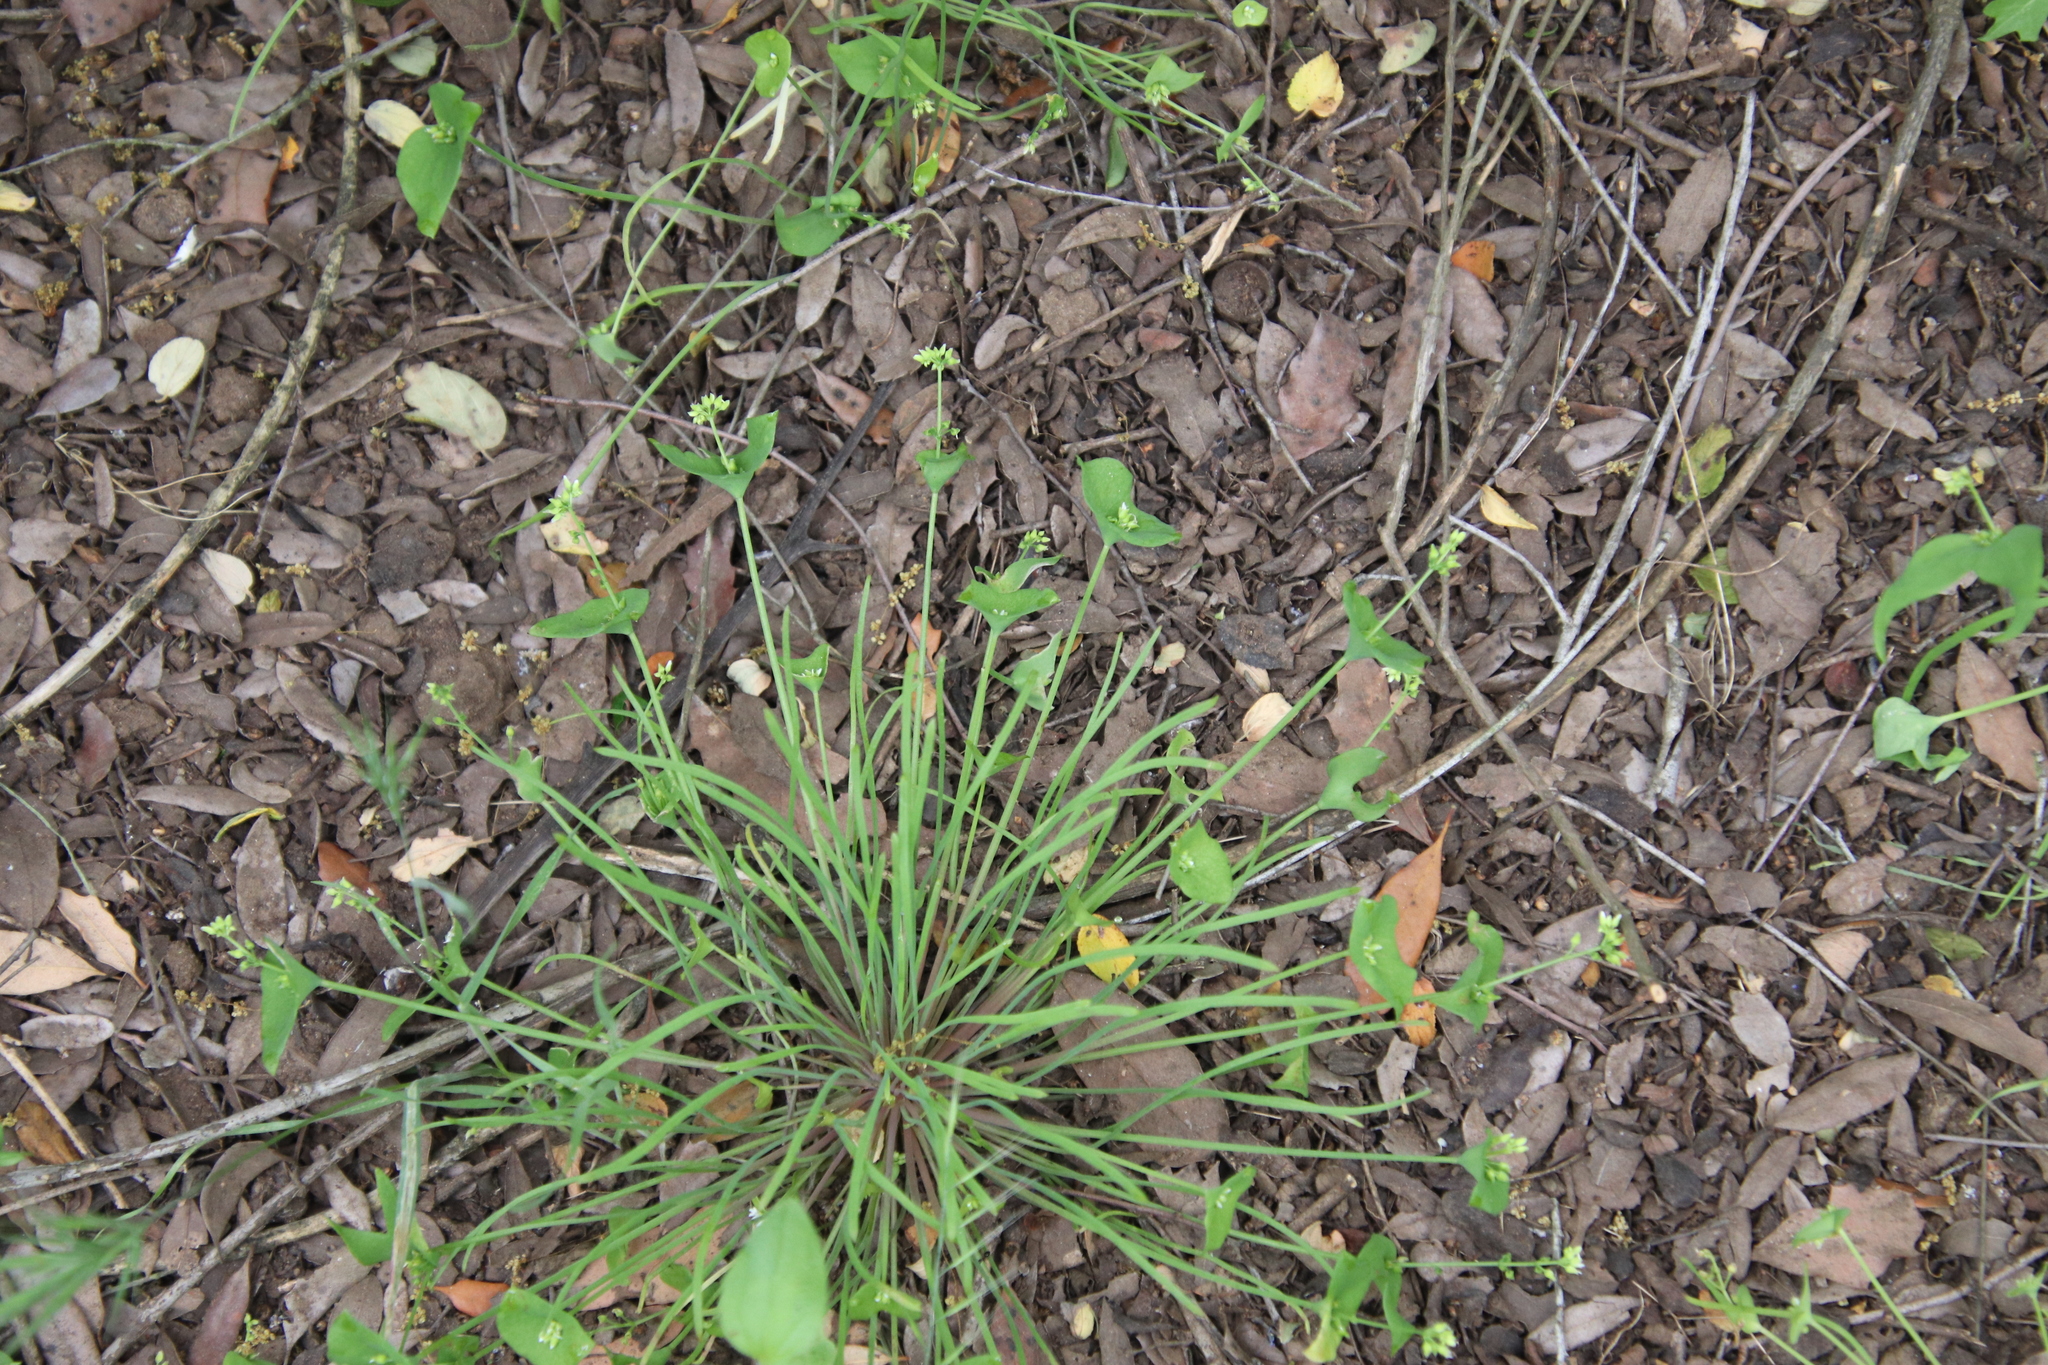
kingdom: Plantae
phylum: Tracheophyta
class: Magnoliopsida
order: Caryophyllales
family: Montiaceae
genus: Claytonia
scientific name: Claytonia parviflora
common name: Indian-lettuce
